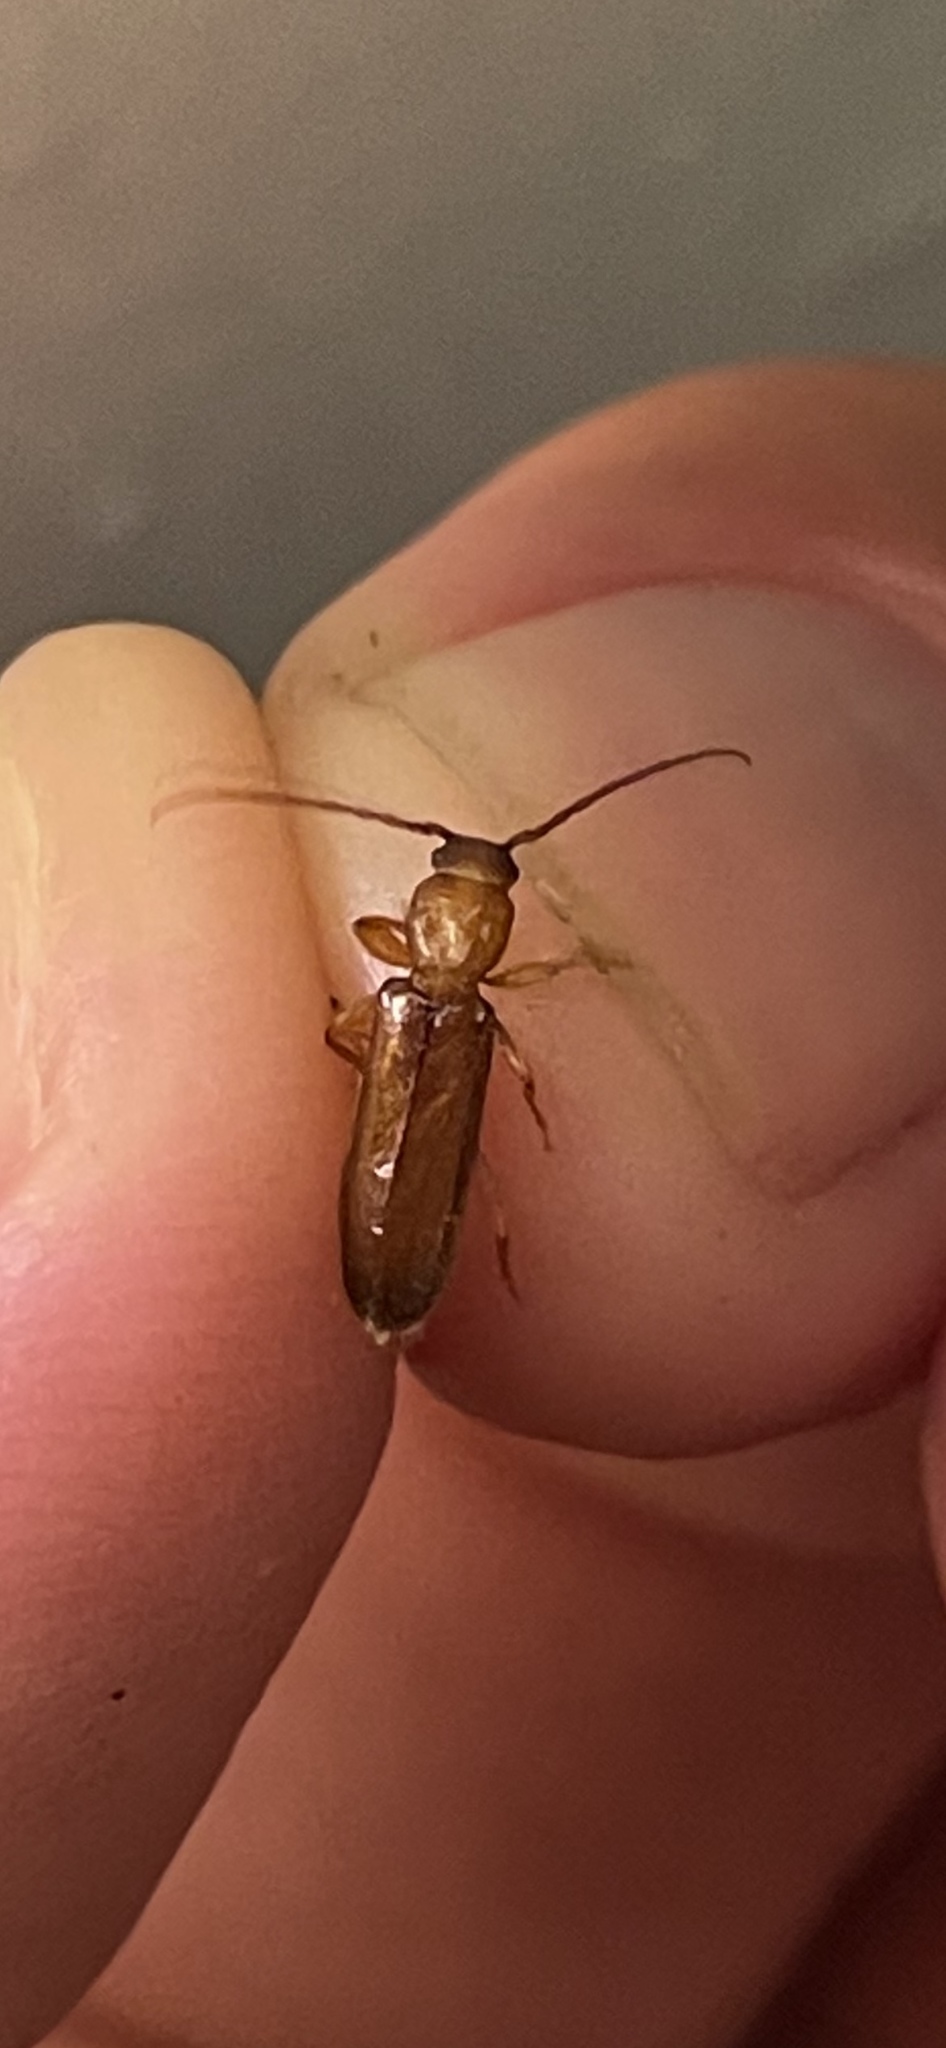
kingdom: Animalia
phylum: Arthropoda
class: Insecta
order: Coleoptera
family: Cerambycidae
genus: Smodicum
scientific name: Smodicum cucujiforme
